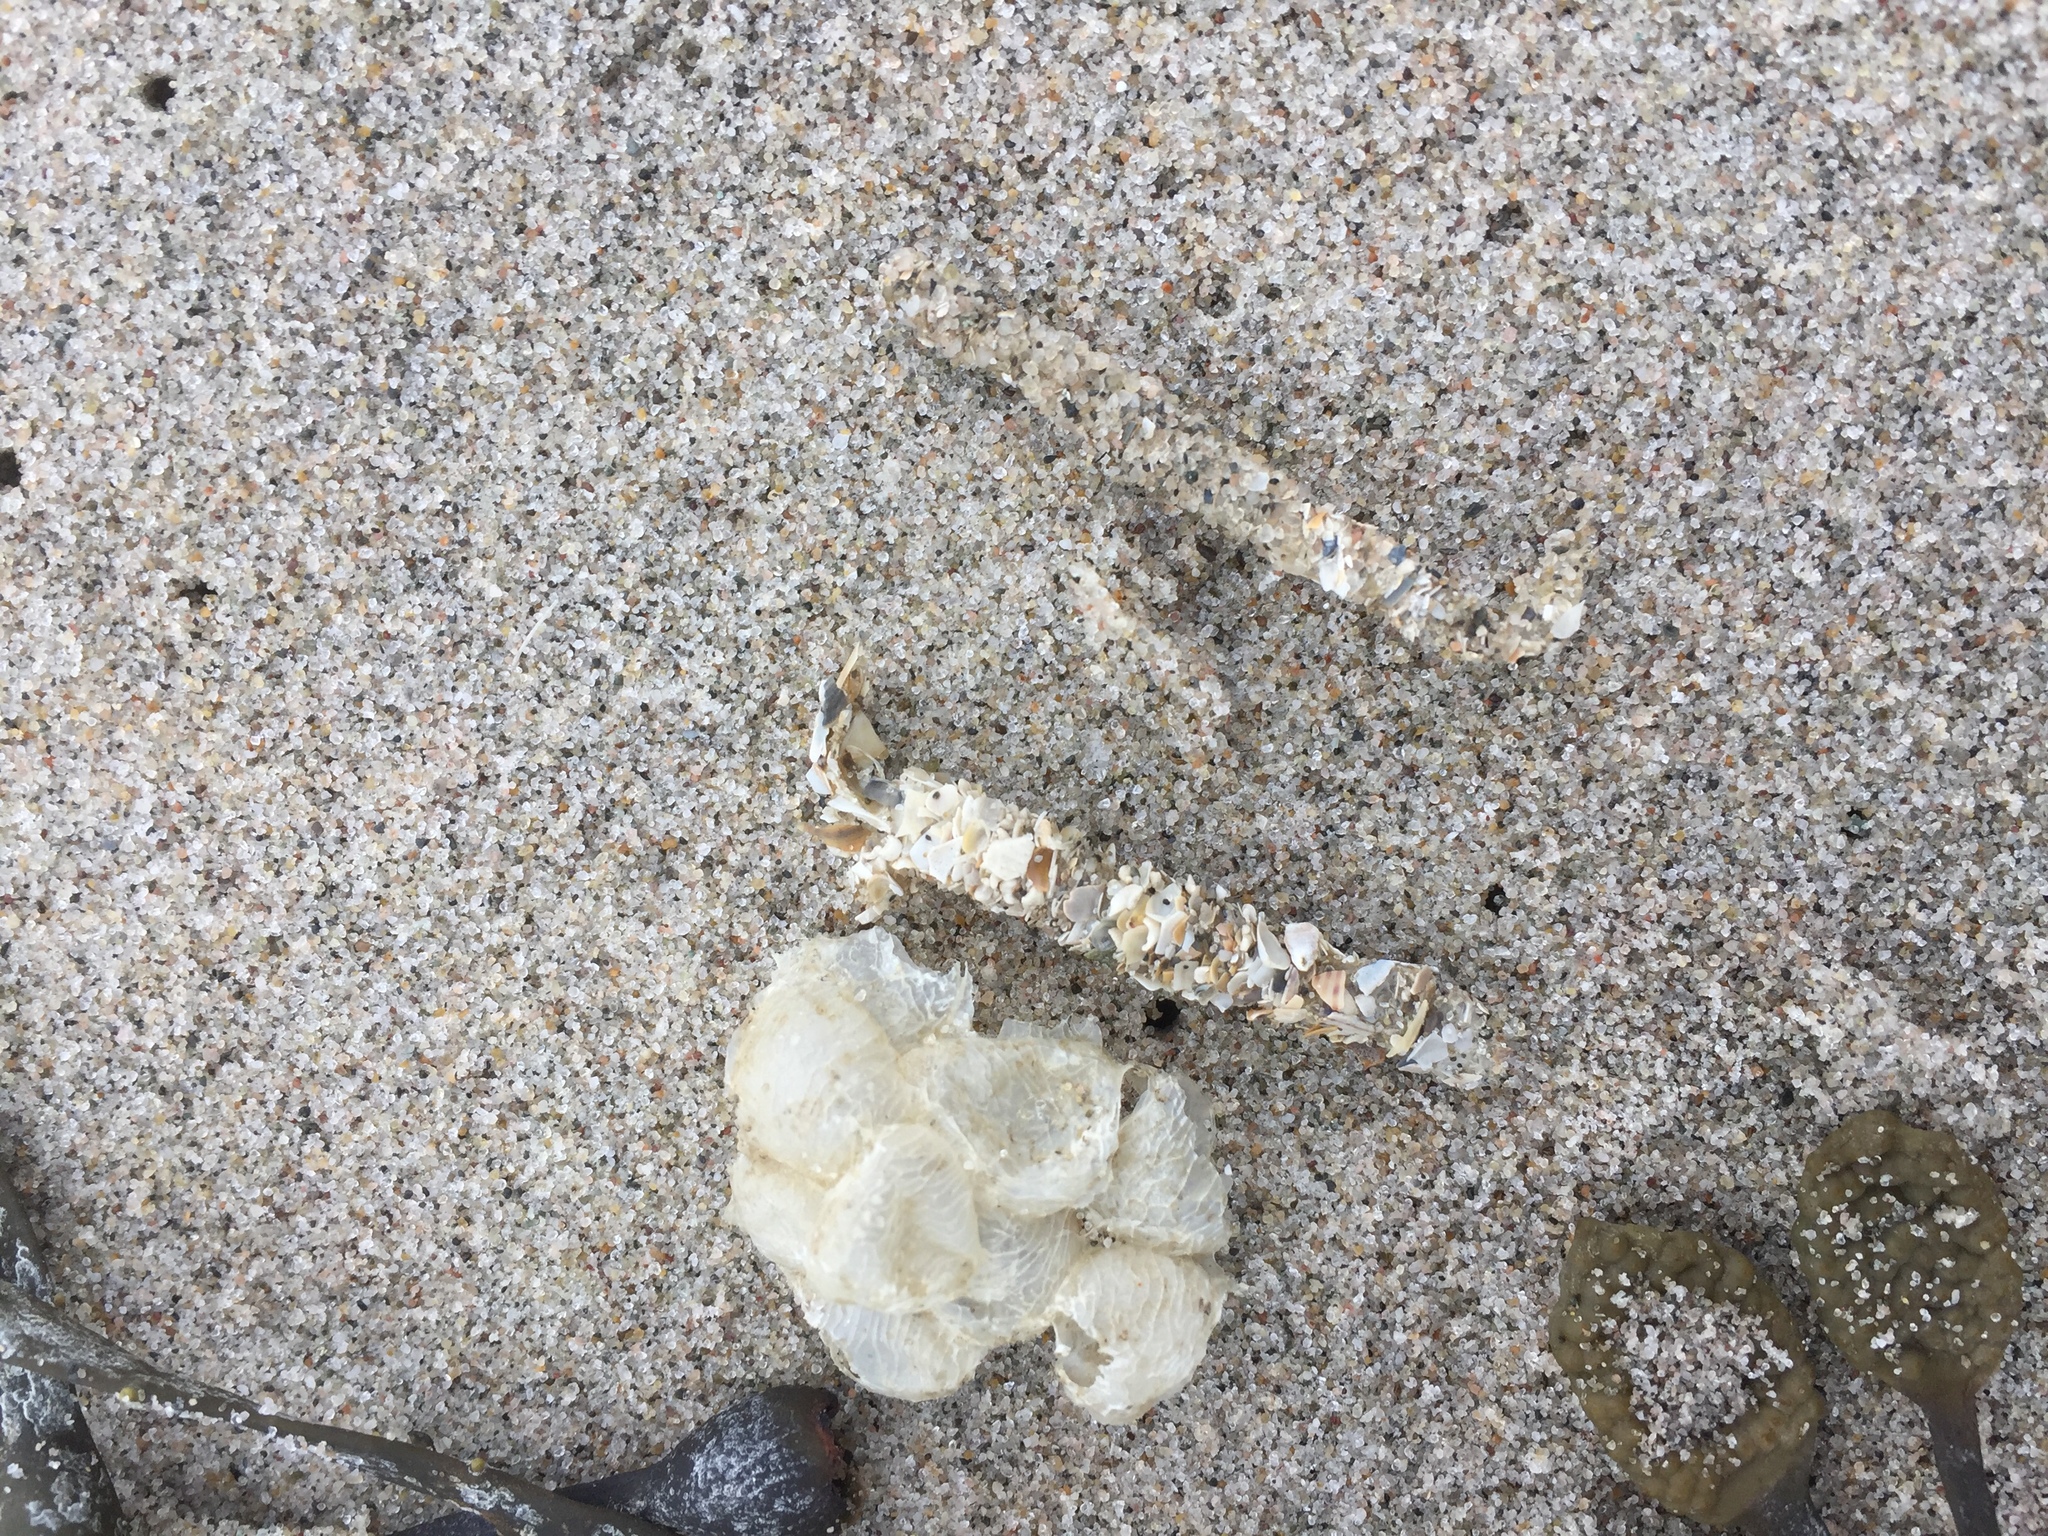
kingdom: Animalia
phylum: Annelida
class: Polychaeta
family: Terebellidae
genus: Lanice
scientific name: Lanice conchilega
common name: Sand mason
